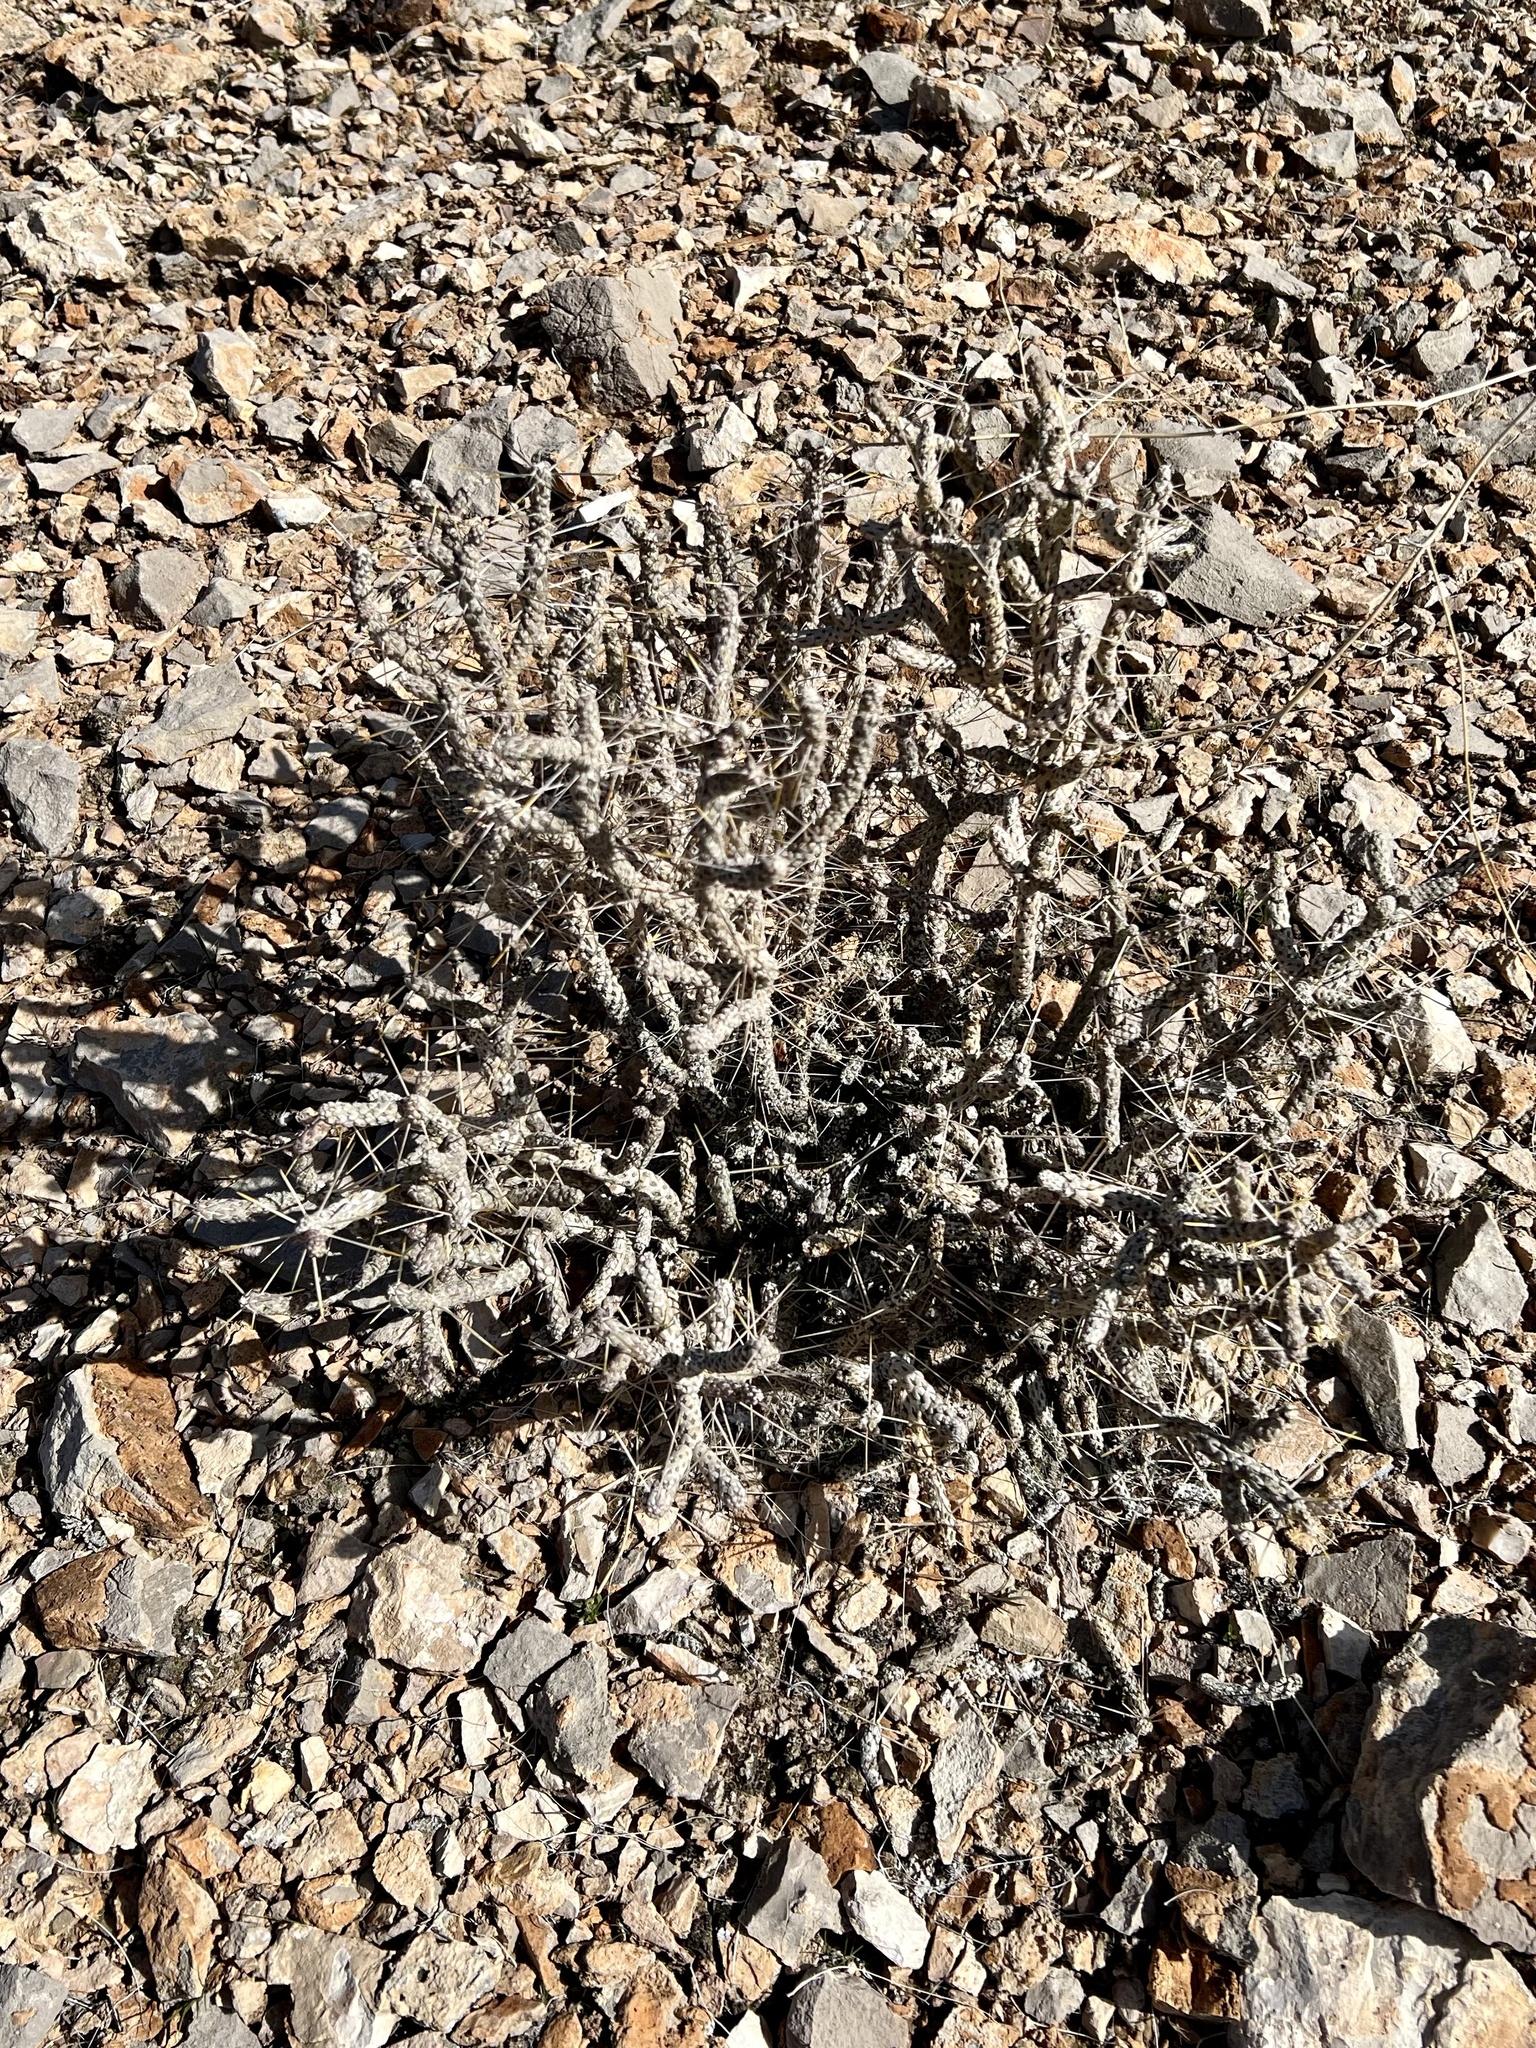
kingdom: Plantae
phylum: Tracheophyta
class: Magnoliopsida
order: Caryophyllales
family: Cactaceae
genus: Cylindropuntia
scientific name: Cylindropuntia ramosissima
